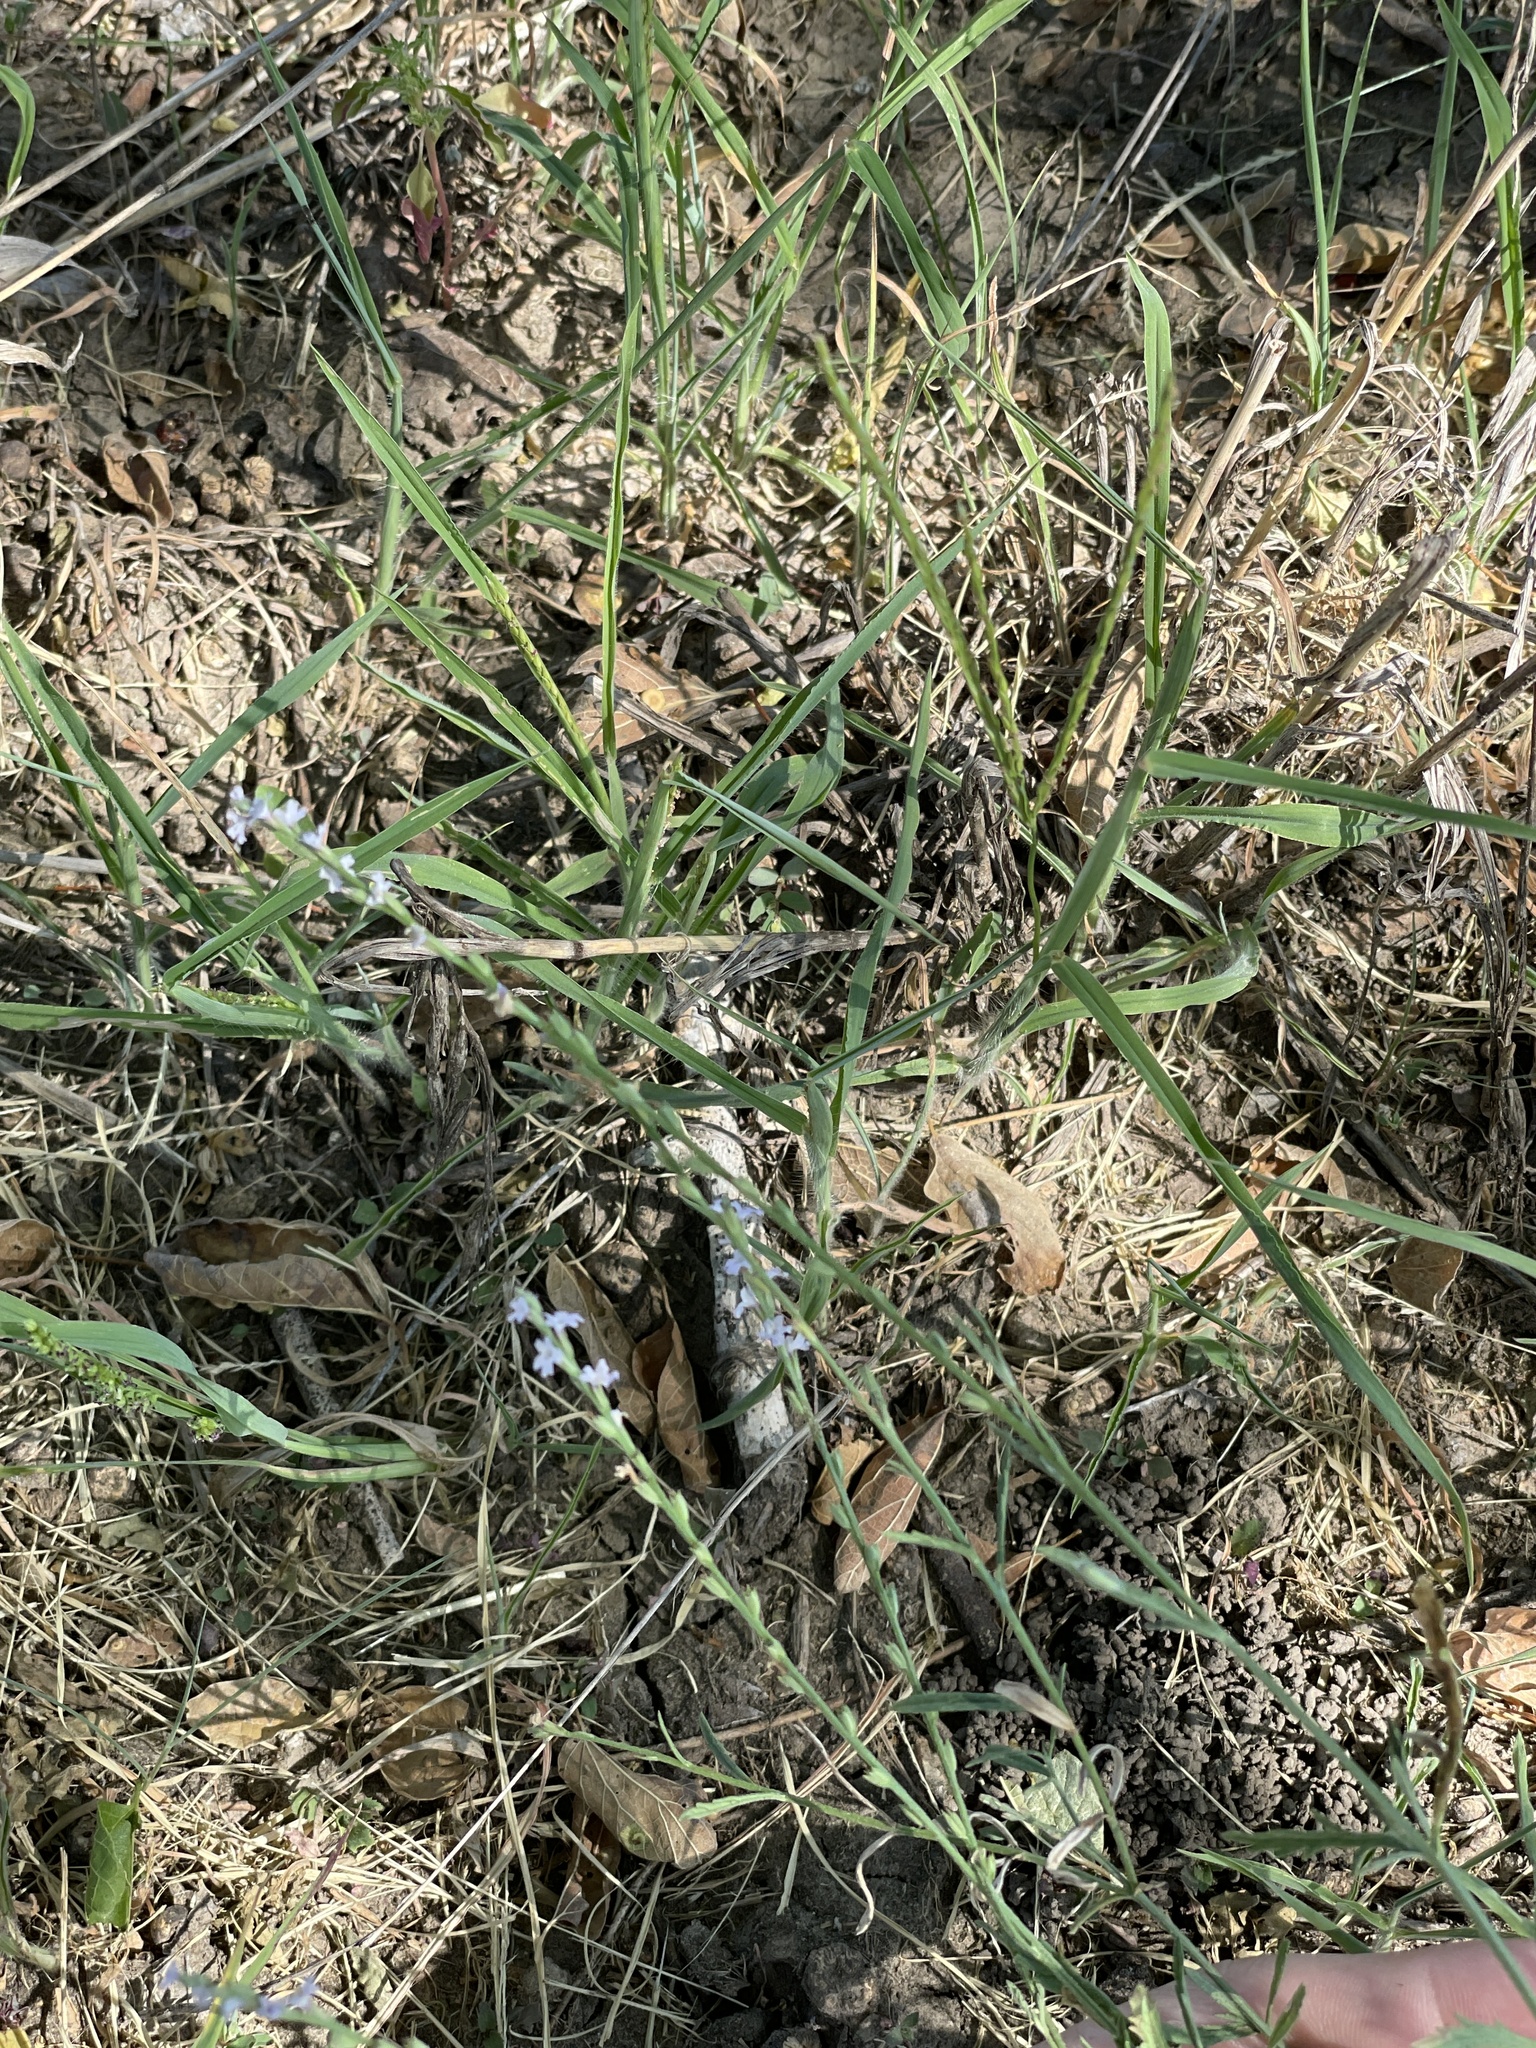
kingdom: Plantae
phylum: Tracheophyta
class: Magnoliopsida
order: Lamiales
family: Verbenaceae
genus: Verbena
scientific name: Verbena halei
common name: Texas vervain
